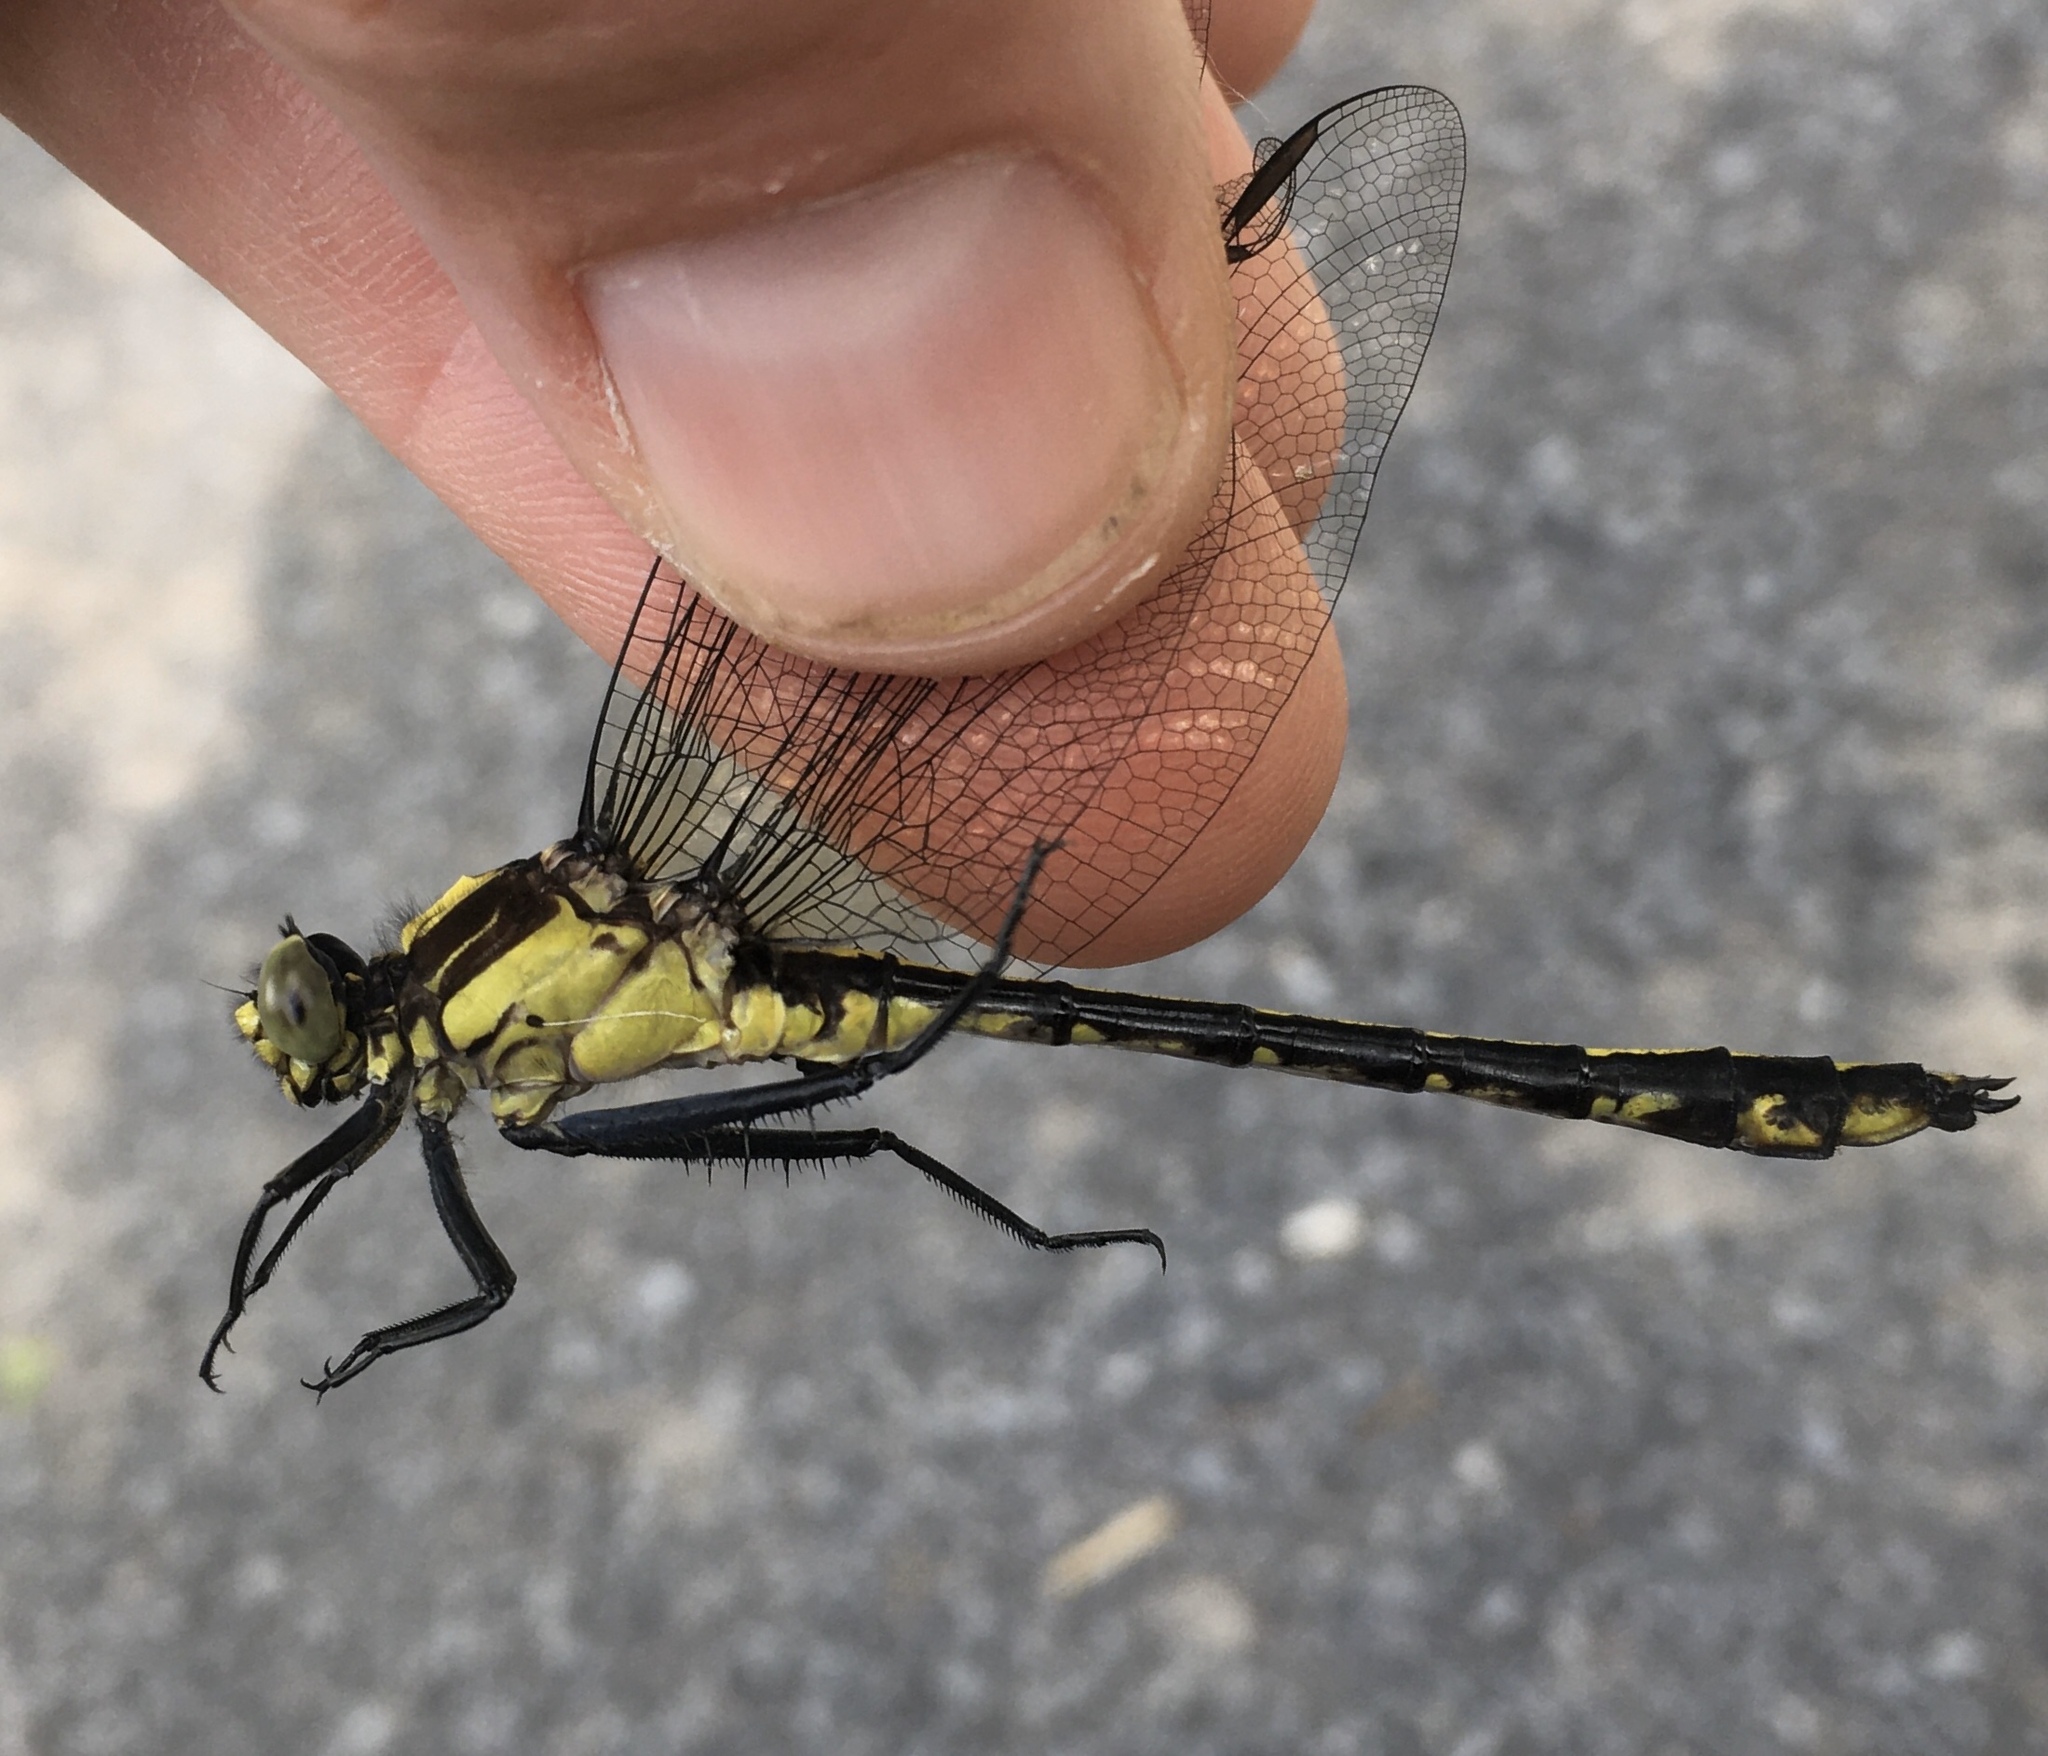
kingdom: Animalia
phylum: Arthropoda
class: Insecta
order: Odonata
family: Gomphidae
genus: Dromogomphus
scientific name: Dromogomphus spinosus
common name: Black-shouldered spinyleg
